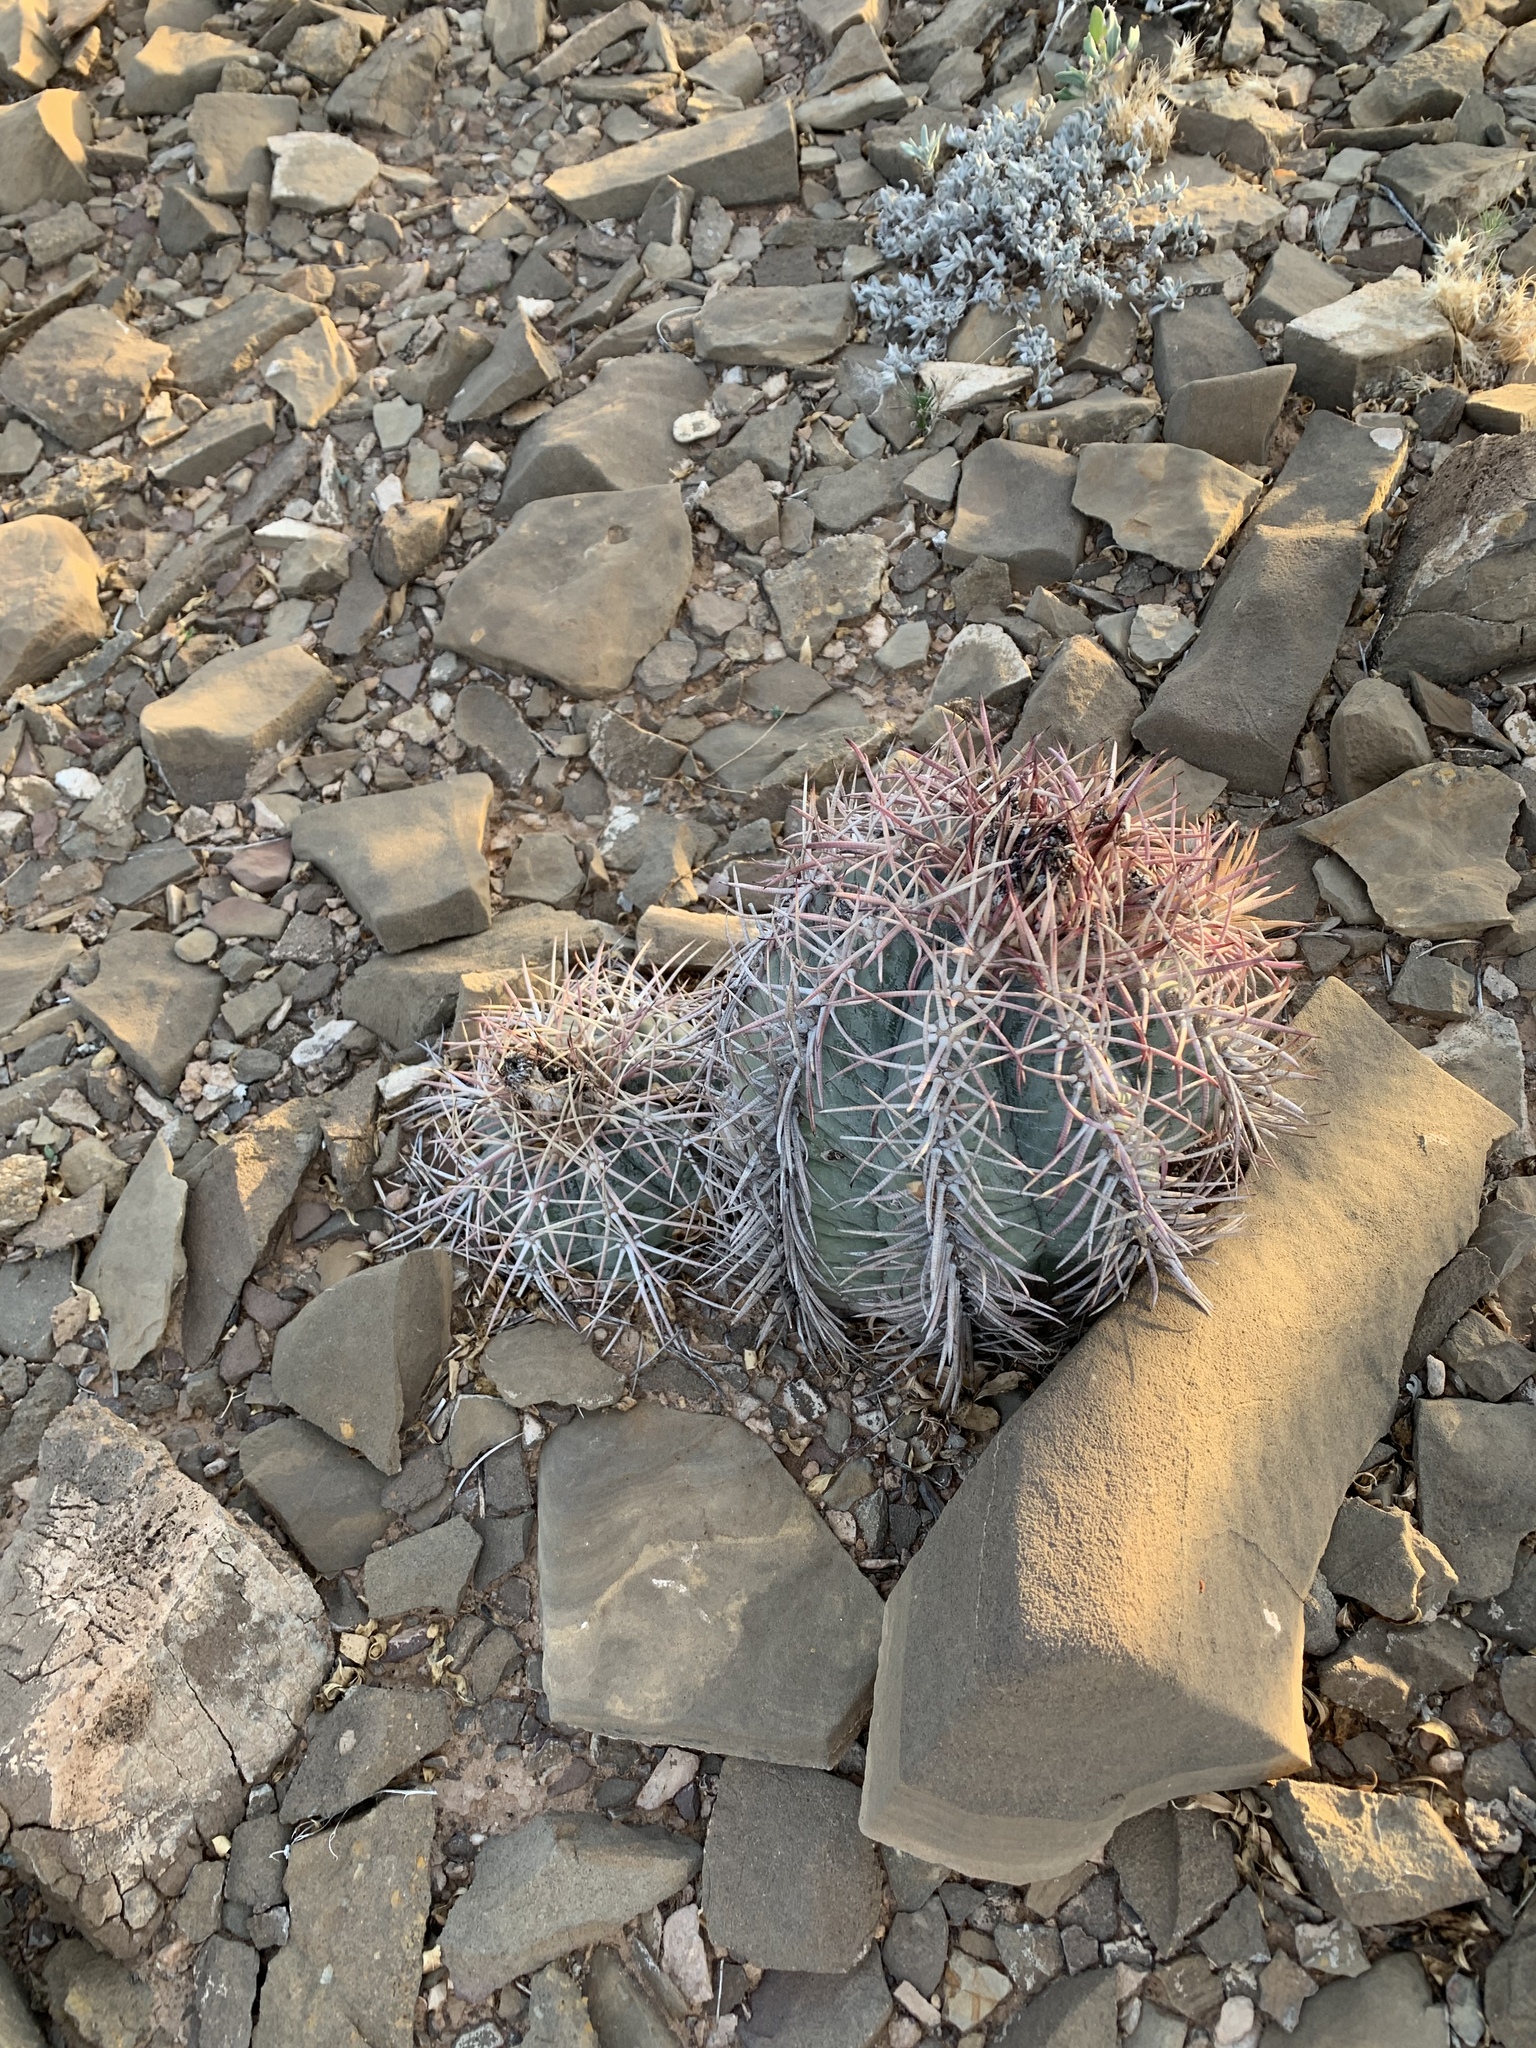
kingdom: Plantae
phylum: Tracheophyta
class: Magnoliopsida
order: Caryophyllales
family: Cactaceae
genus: Echinocactus
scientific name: Echinocactus horizonthalonius
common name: Devilshead
